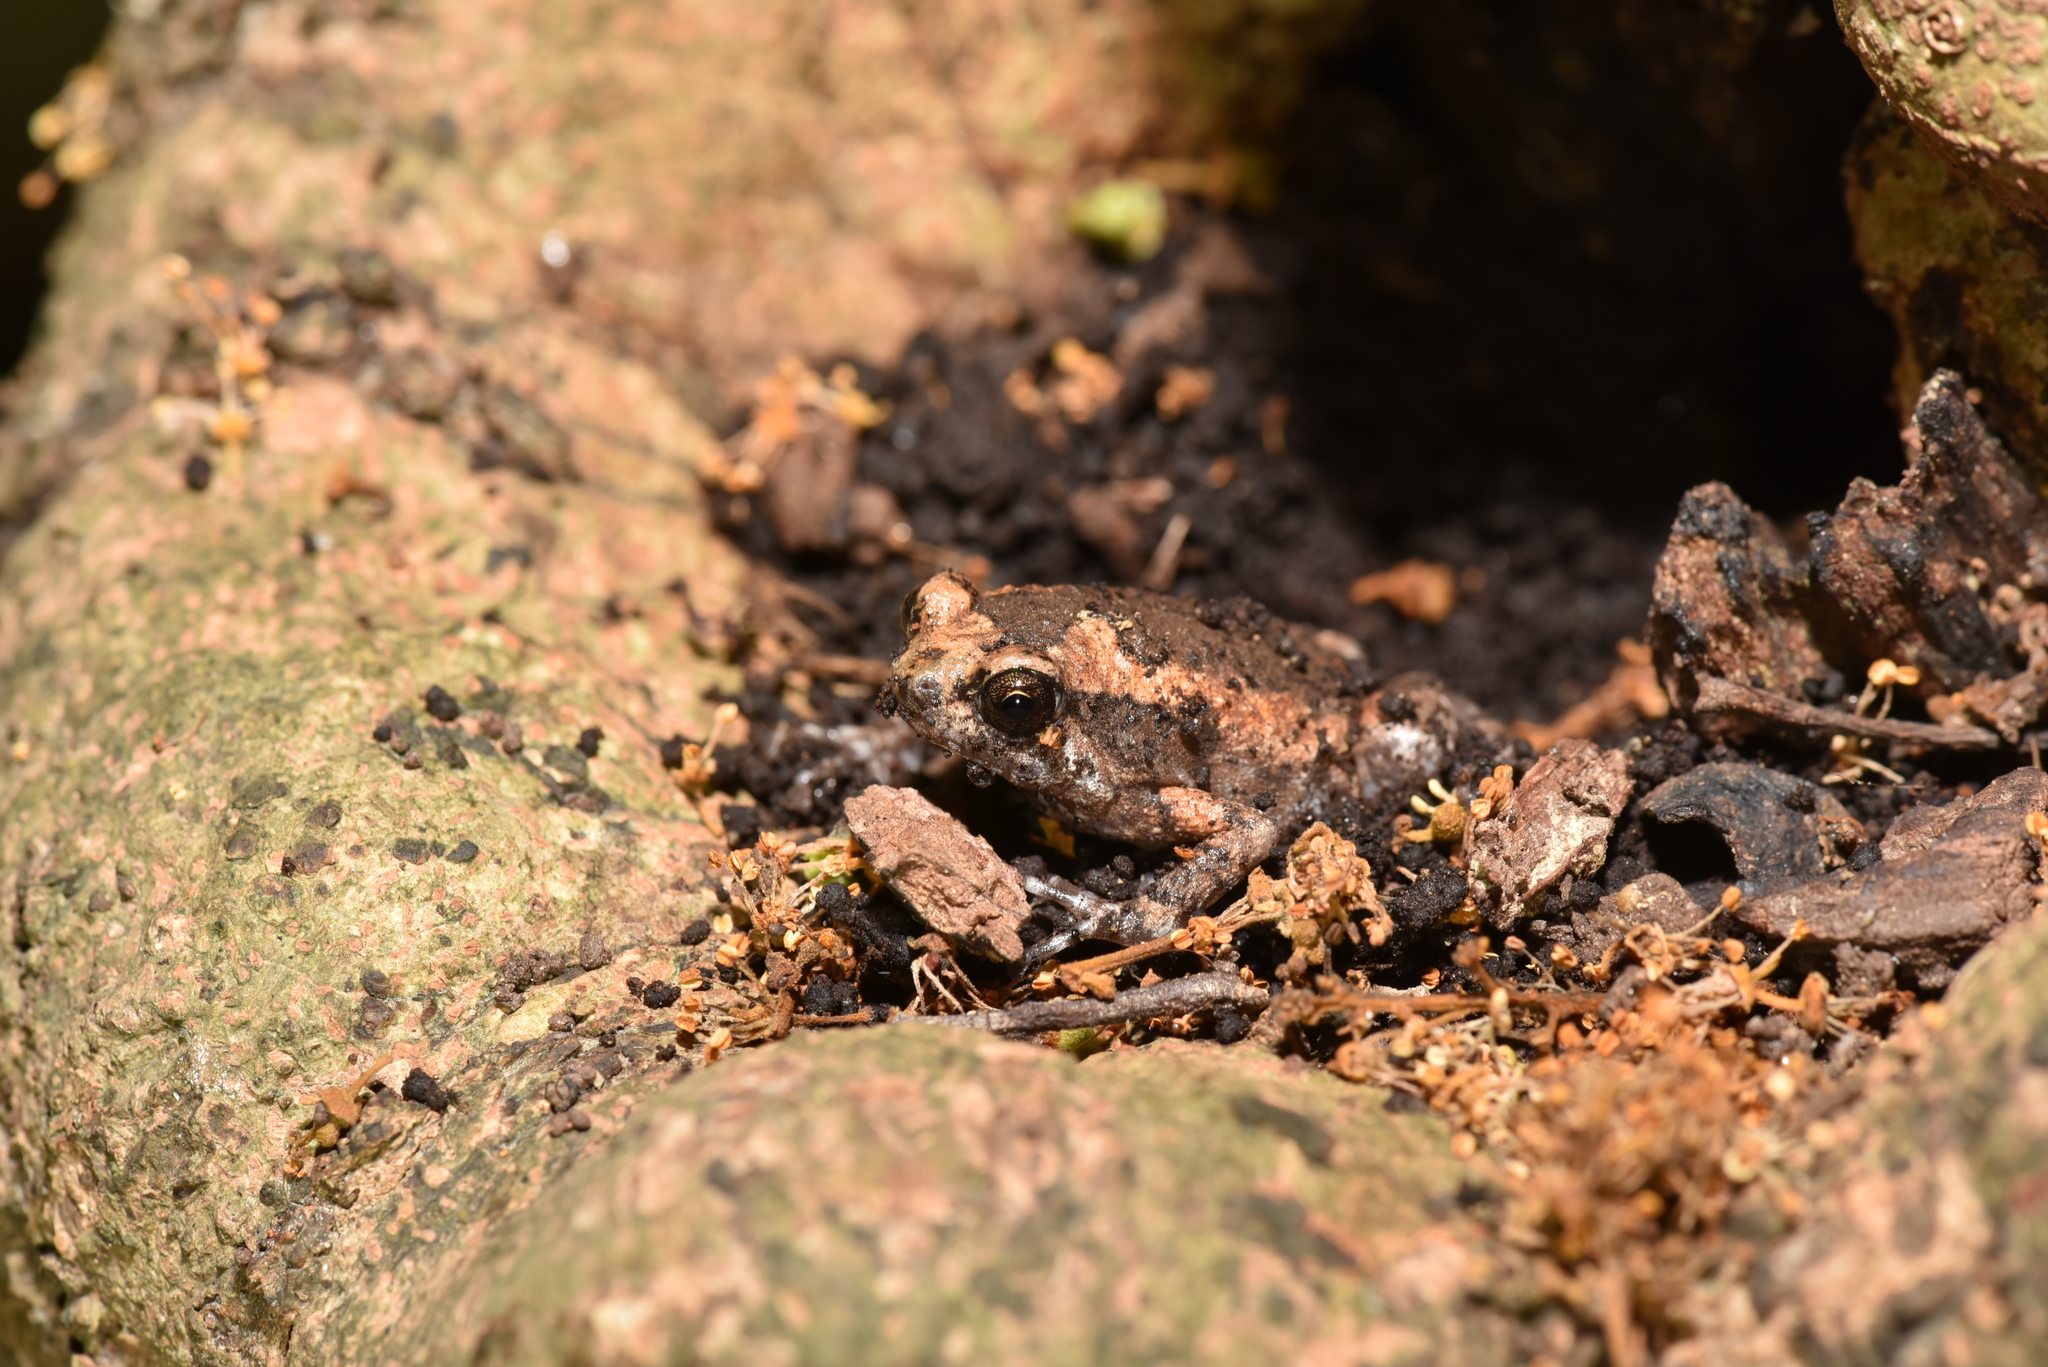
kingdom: Animalia
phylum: Chordata
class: Amphibia
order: Anura
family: Microhylidae
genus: Kaloula
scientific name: Kaloula pulchra
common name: Common,banded bullfrog
